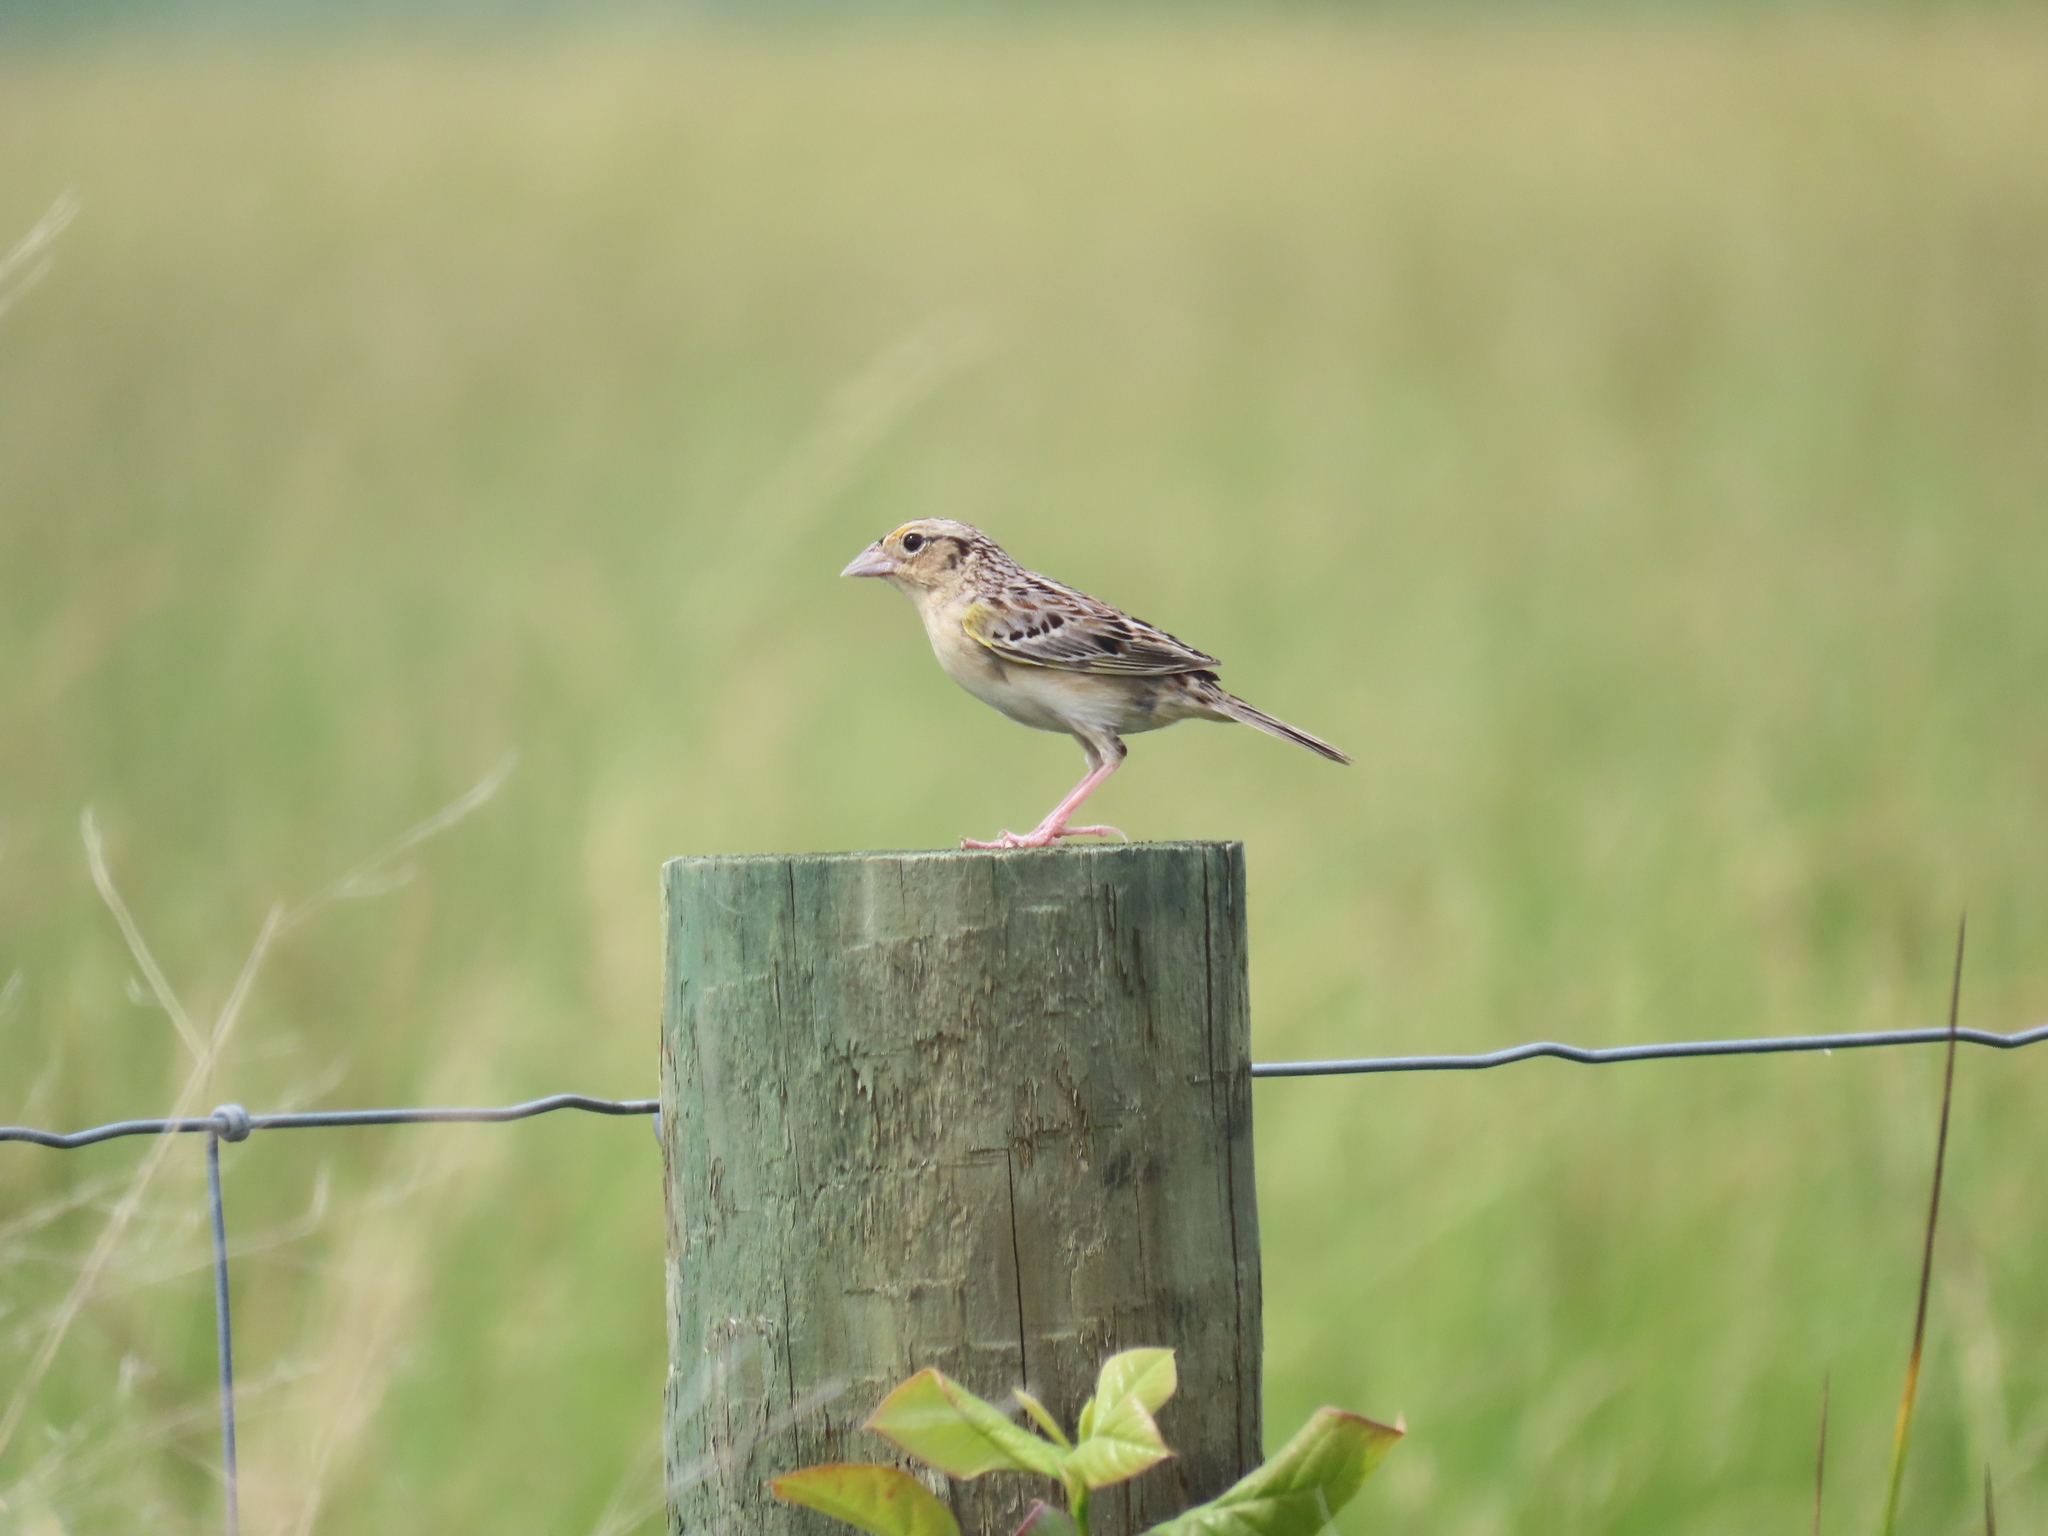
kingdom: Animalia
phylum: Chordata
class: Aves
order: Passeriformes
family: Passerellidae
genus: Ammodramus
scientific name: Ammodramus savannarum
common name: Grasshopper sparrow
